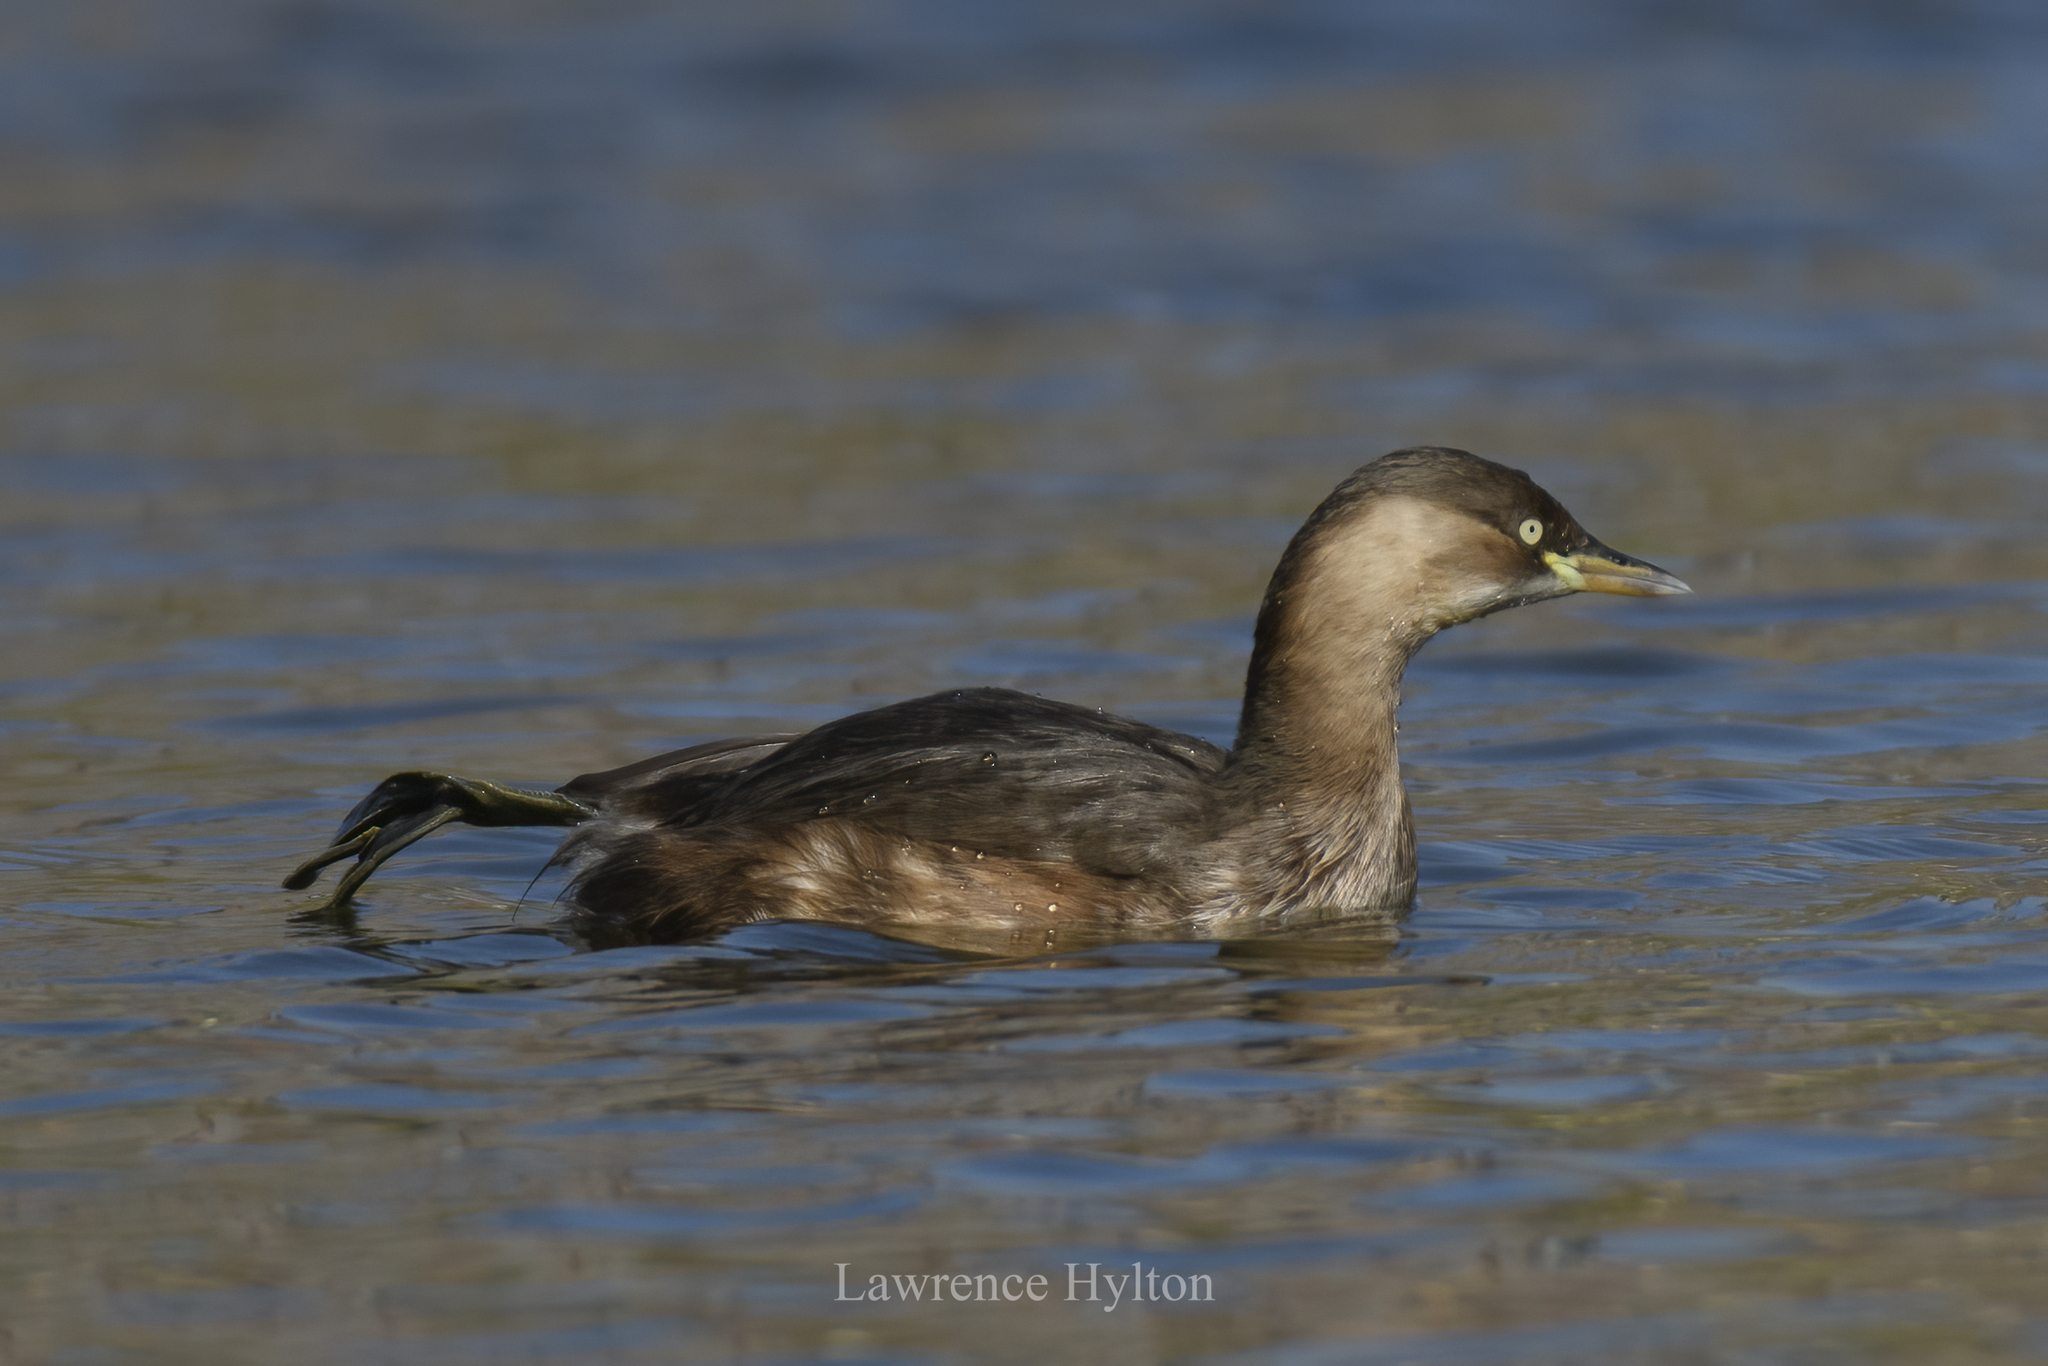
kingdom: Animalia
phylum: Chordata
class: Aves
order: Podicipediformes
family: Podicipedidae
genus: Tachybaptus
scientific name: Tachybaptus ruficollis
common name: Little grebe
